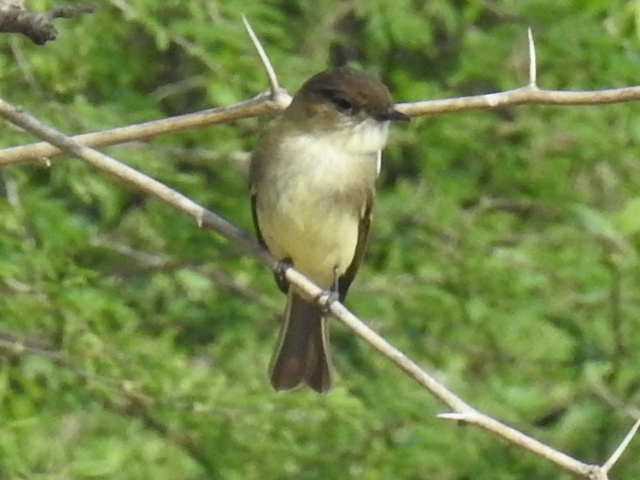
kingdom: Animalia
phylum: Chordata
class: Aves
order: Passeriformes
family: Tyrannidae
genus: Sayornis
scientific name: Sayornis phoebe
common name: Eastern phoebe
